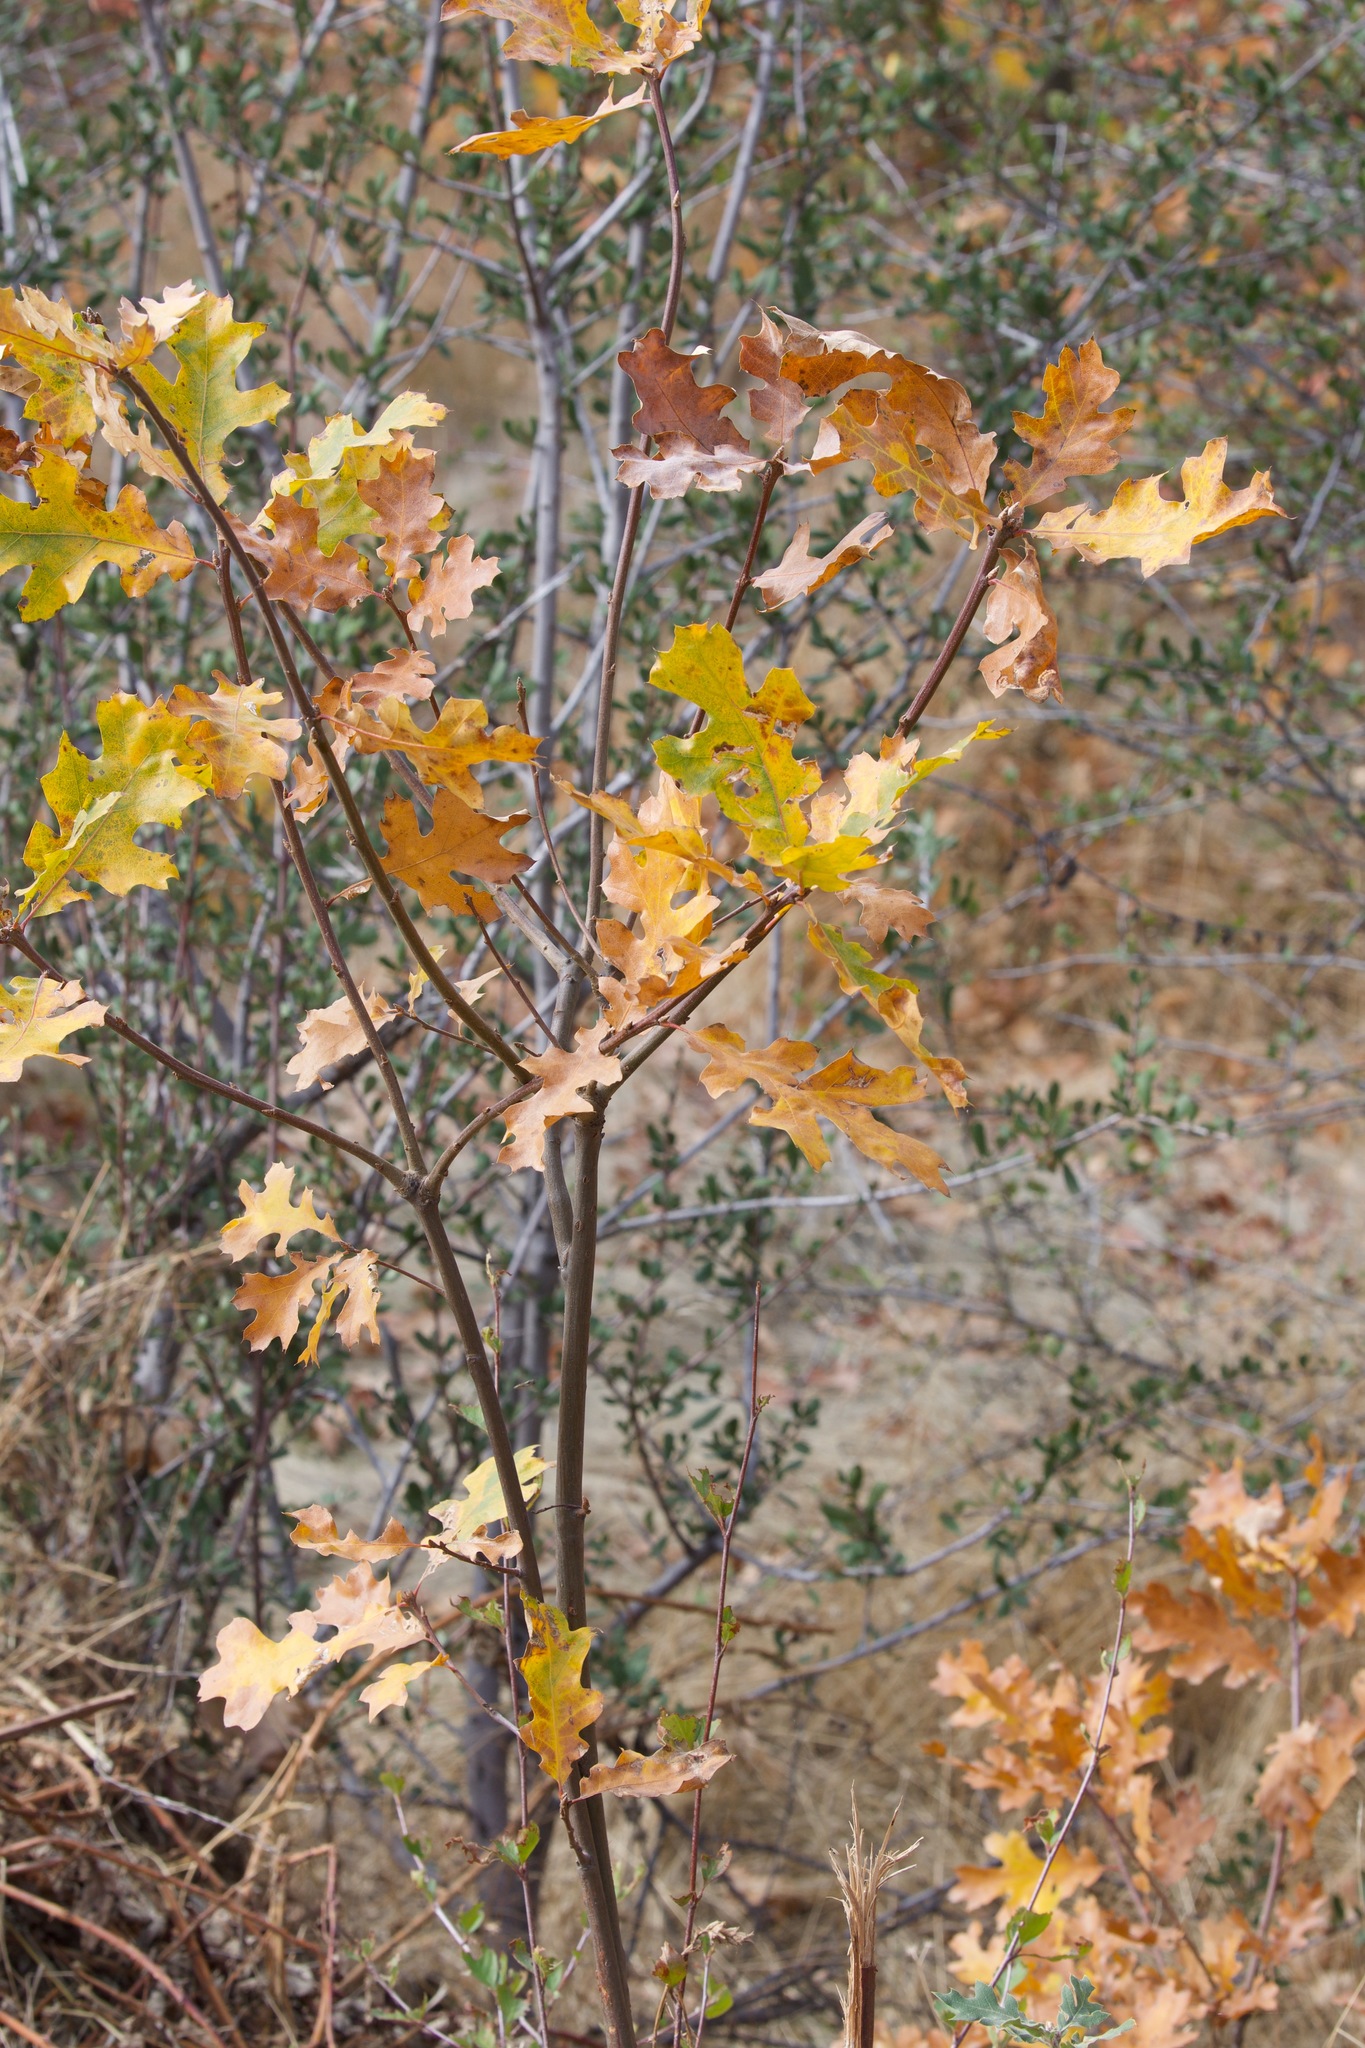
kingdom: Plantae
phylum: Tracheophyta
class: Magnoliopsida
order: Fagales
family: Fagaceae
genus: Quercus
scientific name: Quercus kelloggii
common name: California black oak
